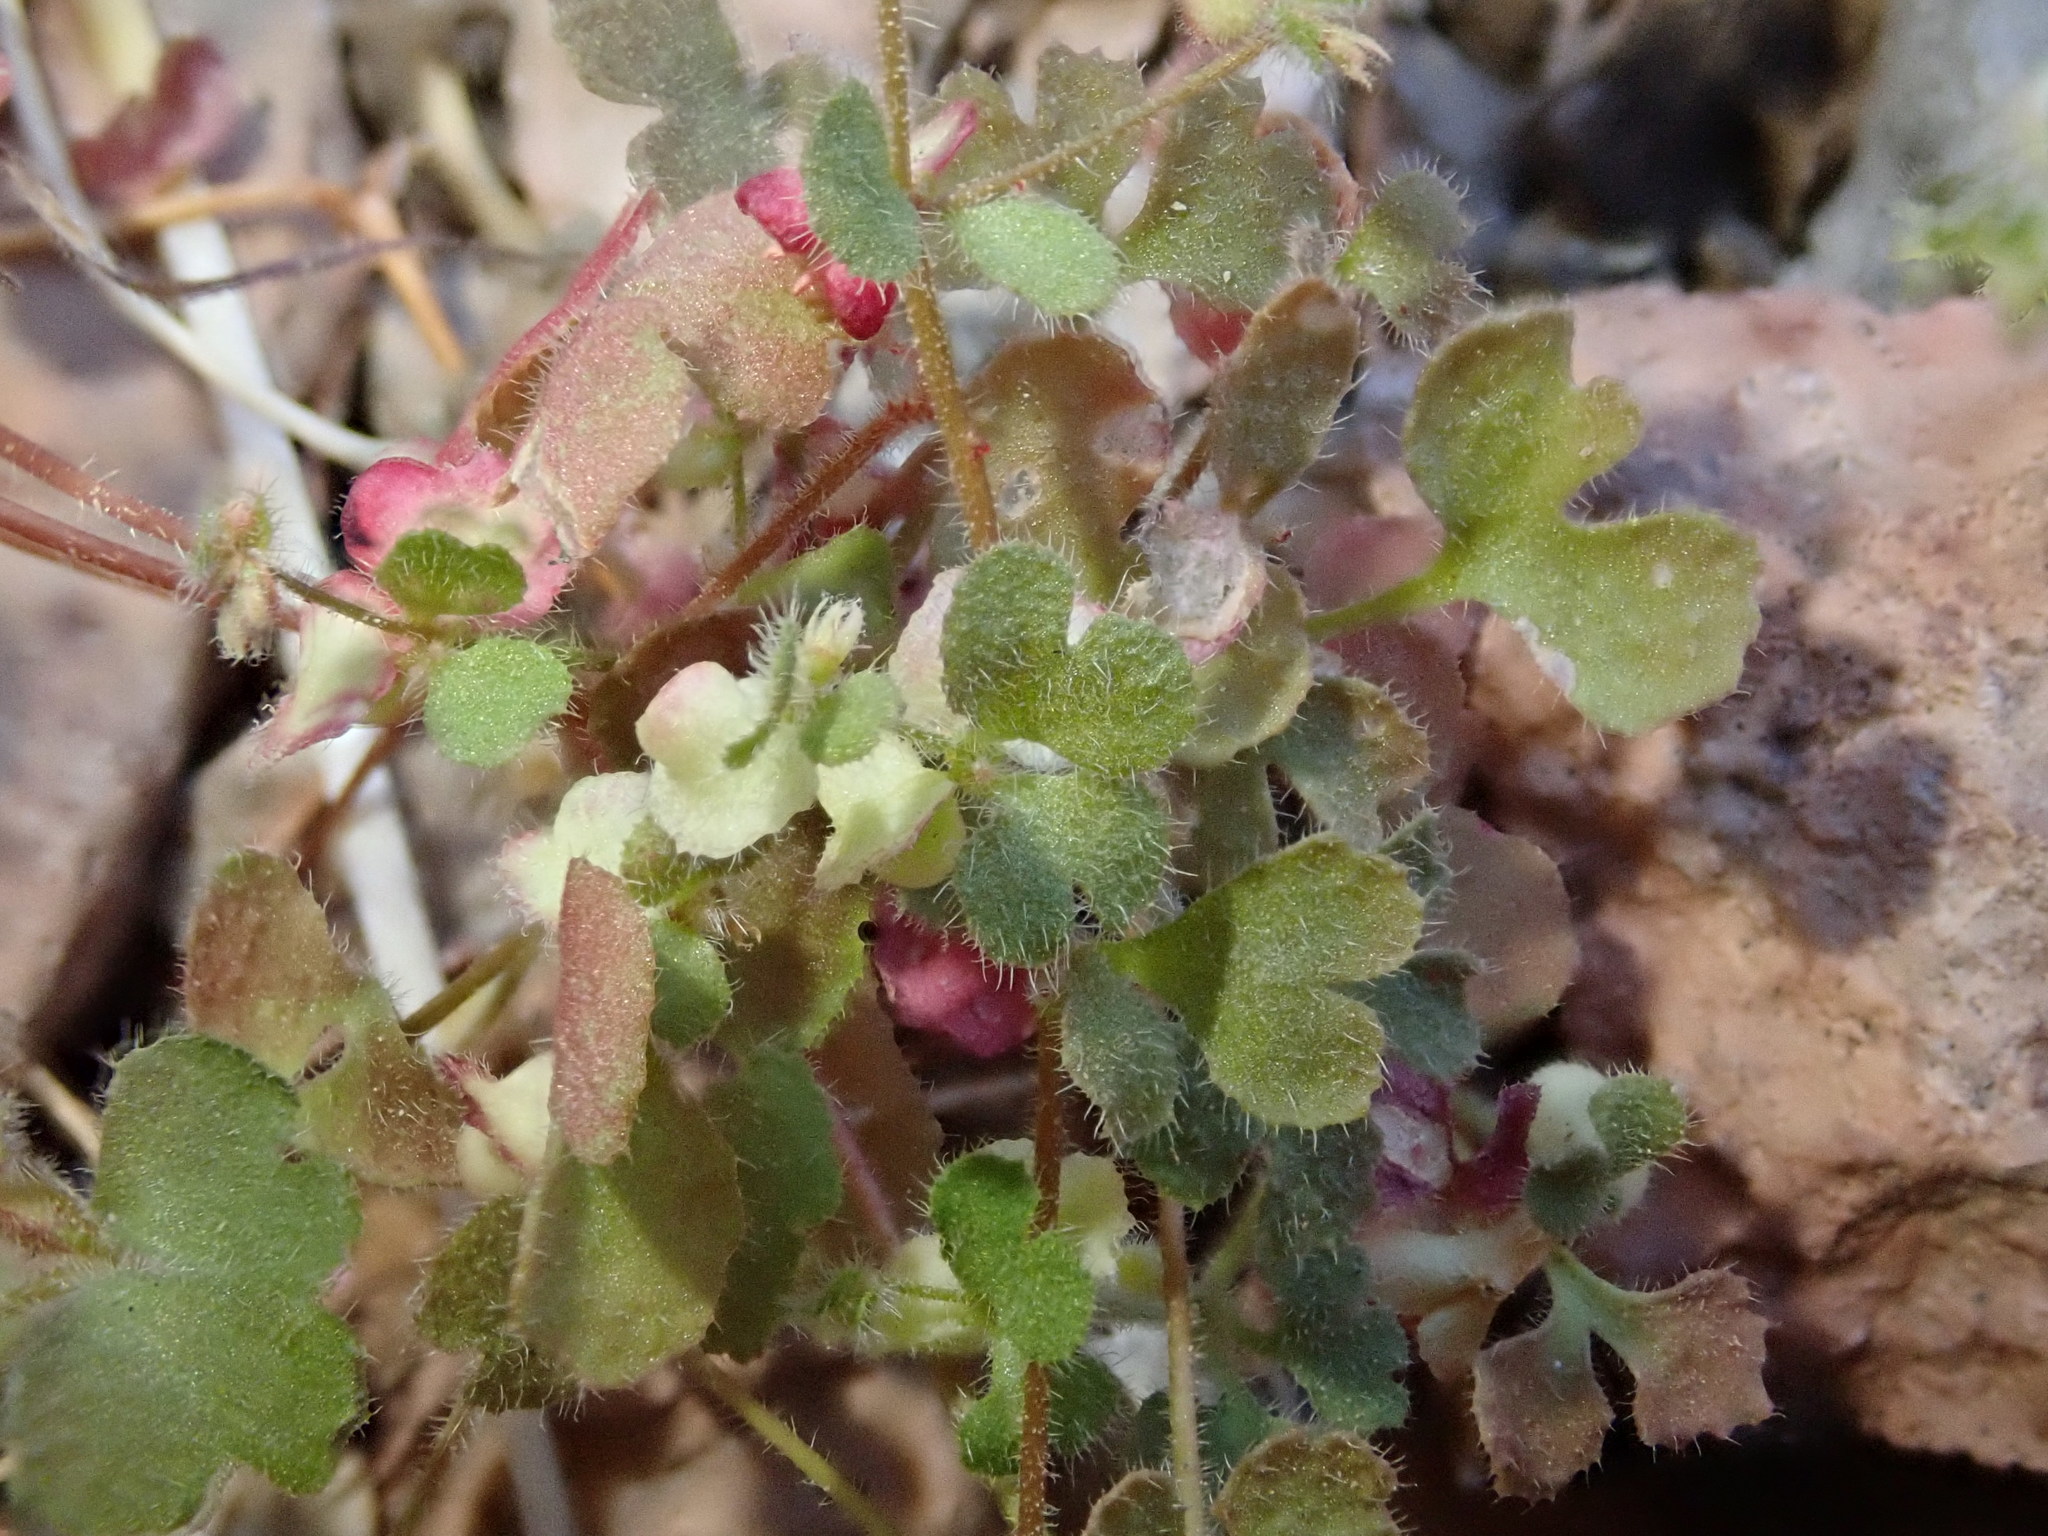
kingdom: Plantae
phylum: Tracheophyta
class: Magnoliopsida
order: Caryophyllales
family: Polygonaceae
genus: Pterostegia
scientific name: Pterostegia drymarioides
